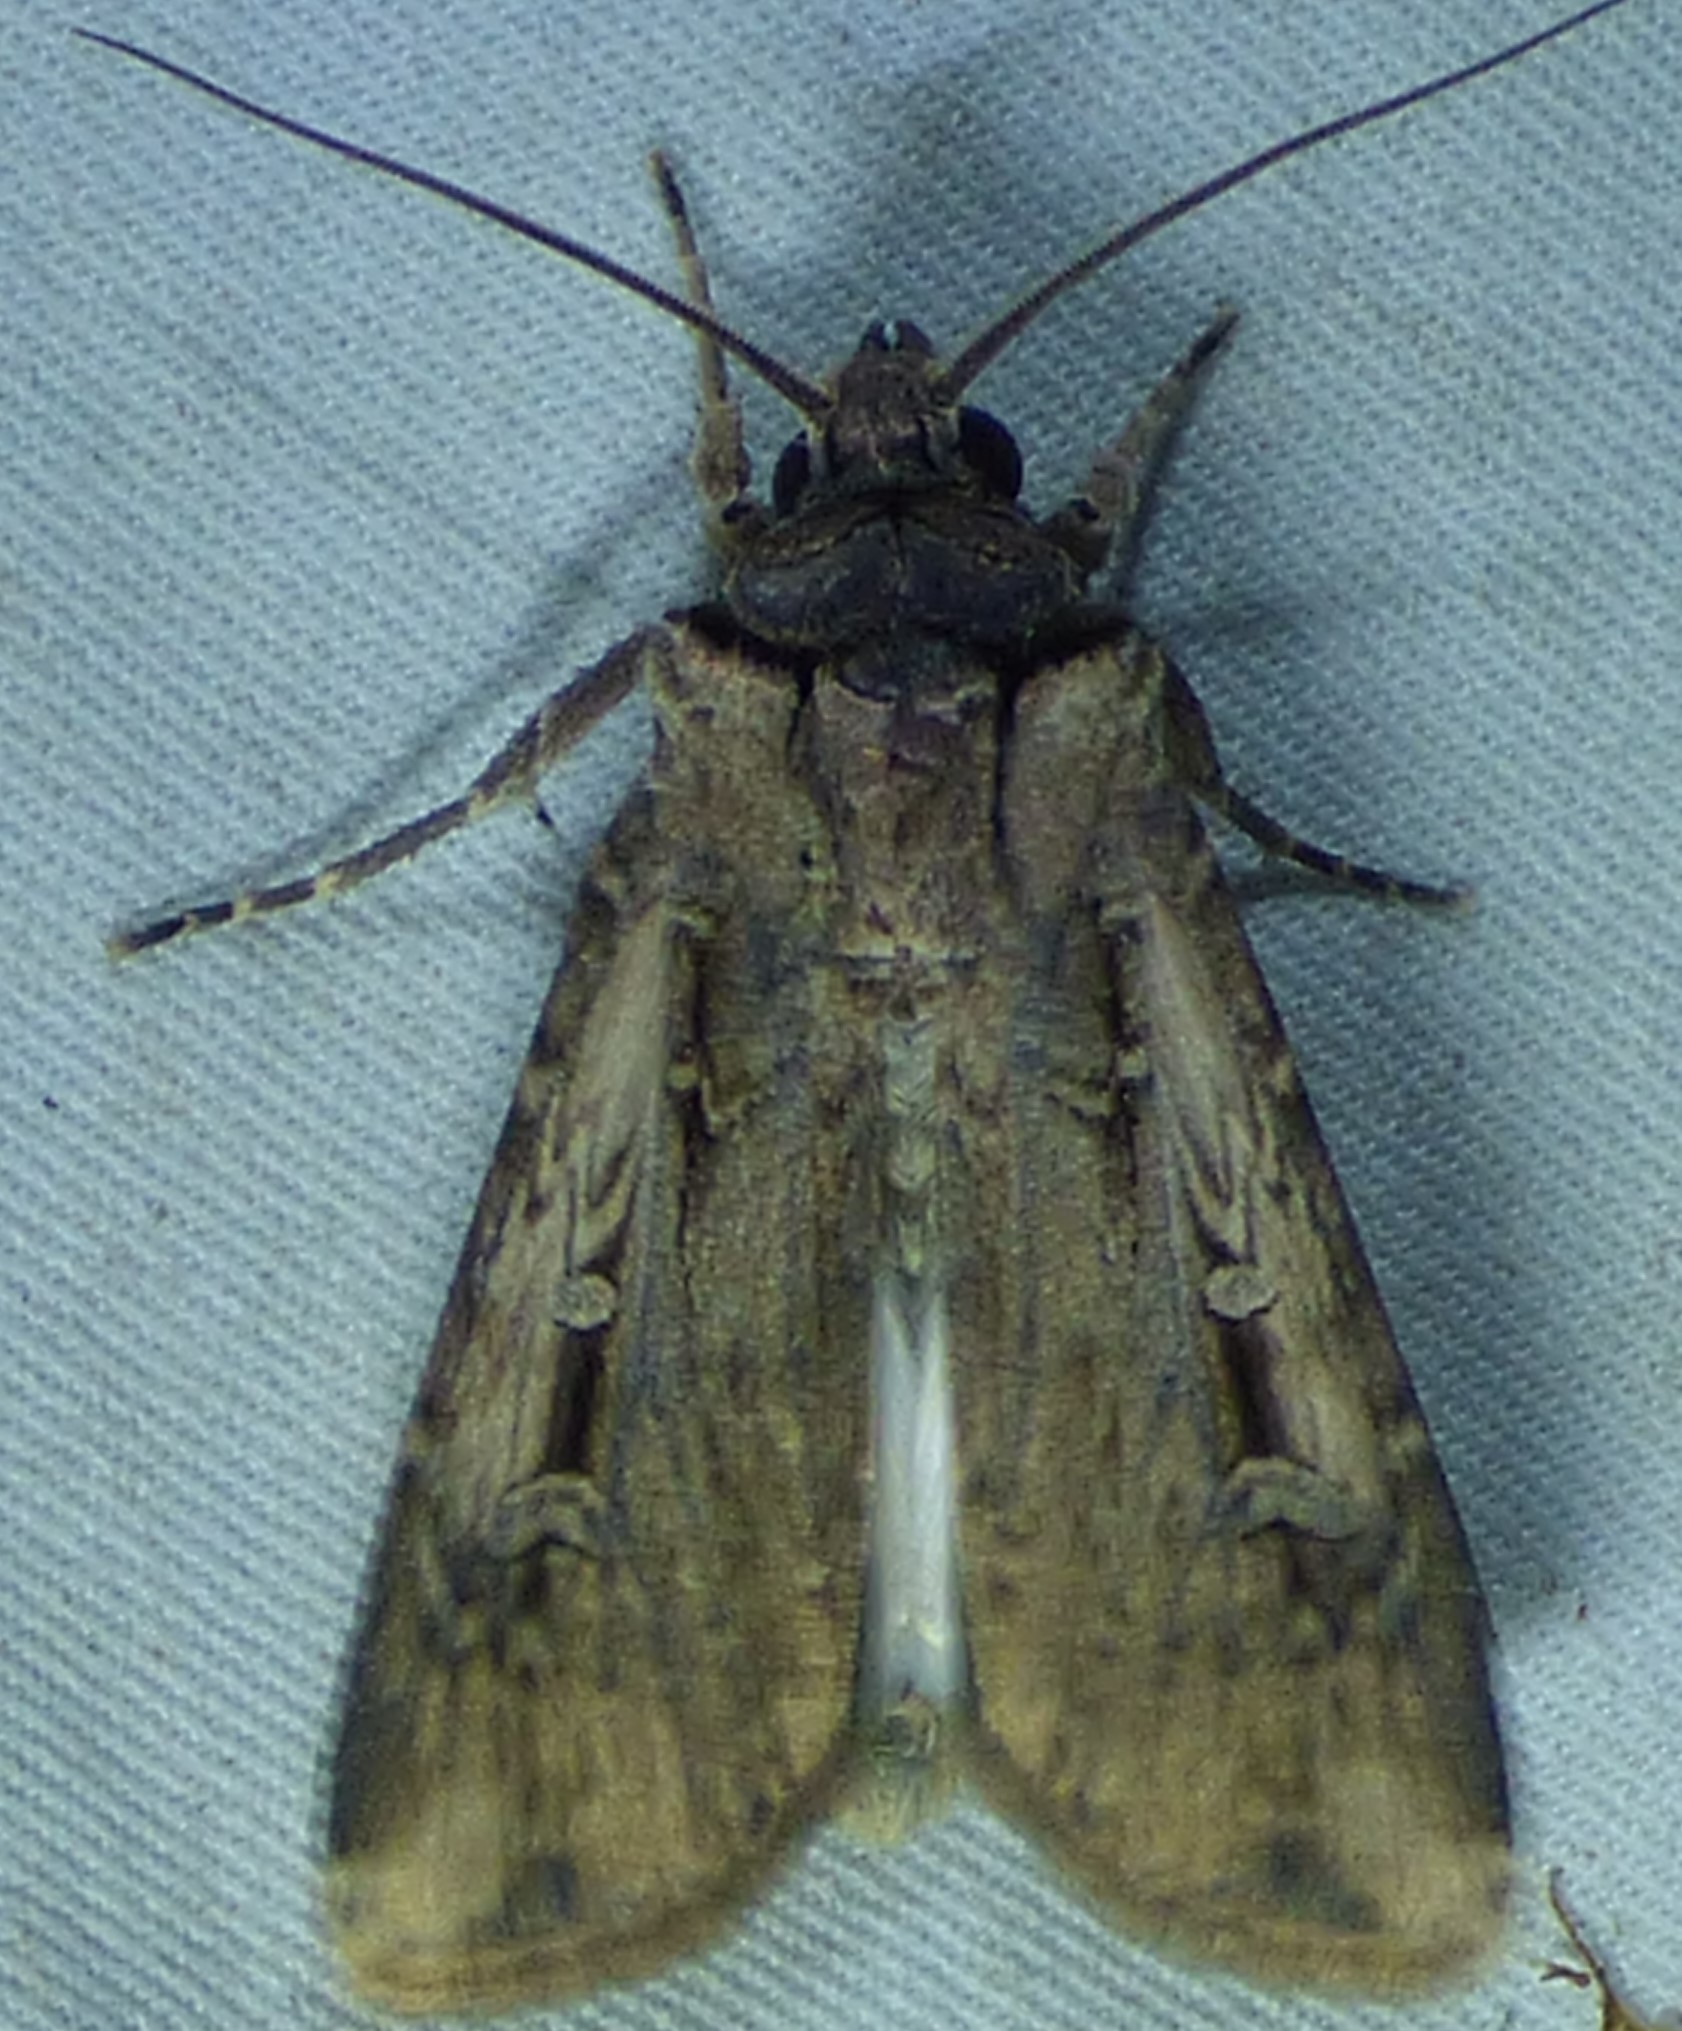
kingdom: Animalia
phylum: Arthropoda
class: Insecta
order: Lepidoptera
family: Noctuidae
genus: Feltia
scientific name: Feltia subterranea
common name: Granulate cutworm
